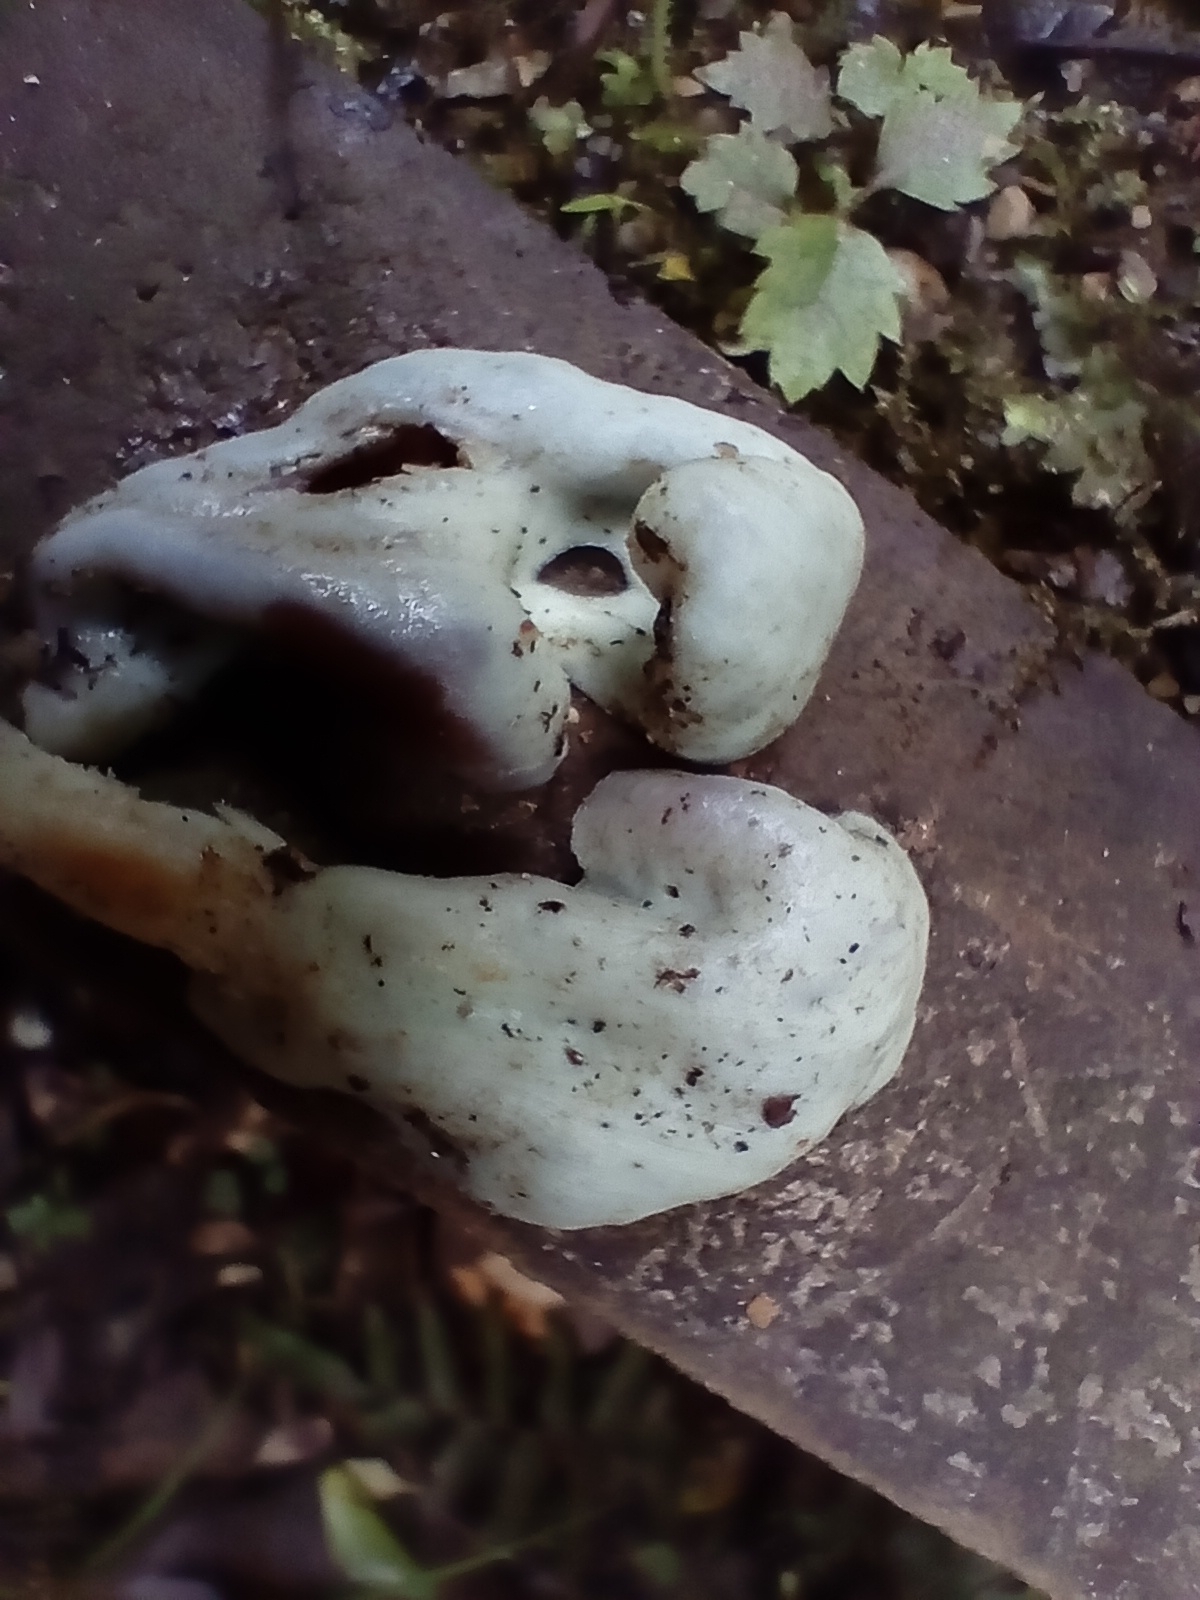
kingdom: Fungi
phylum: Basidiomycota
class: Agaricomycetes
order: Agaricales
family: Agaricaceae
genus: Clavogaster
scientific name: Clavogaster virescens
